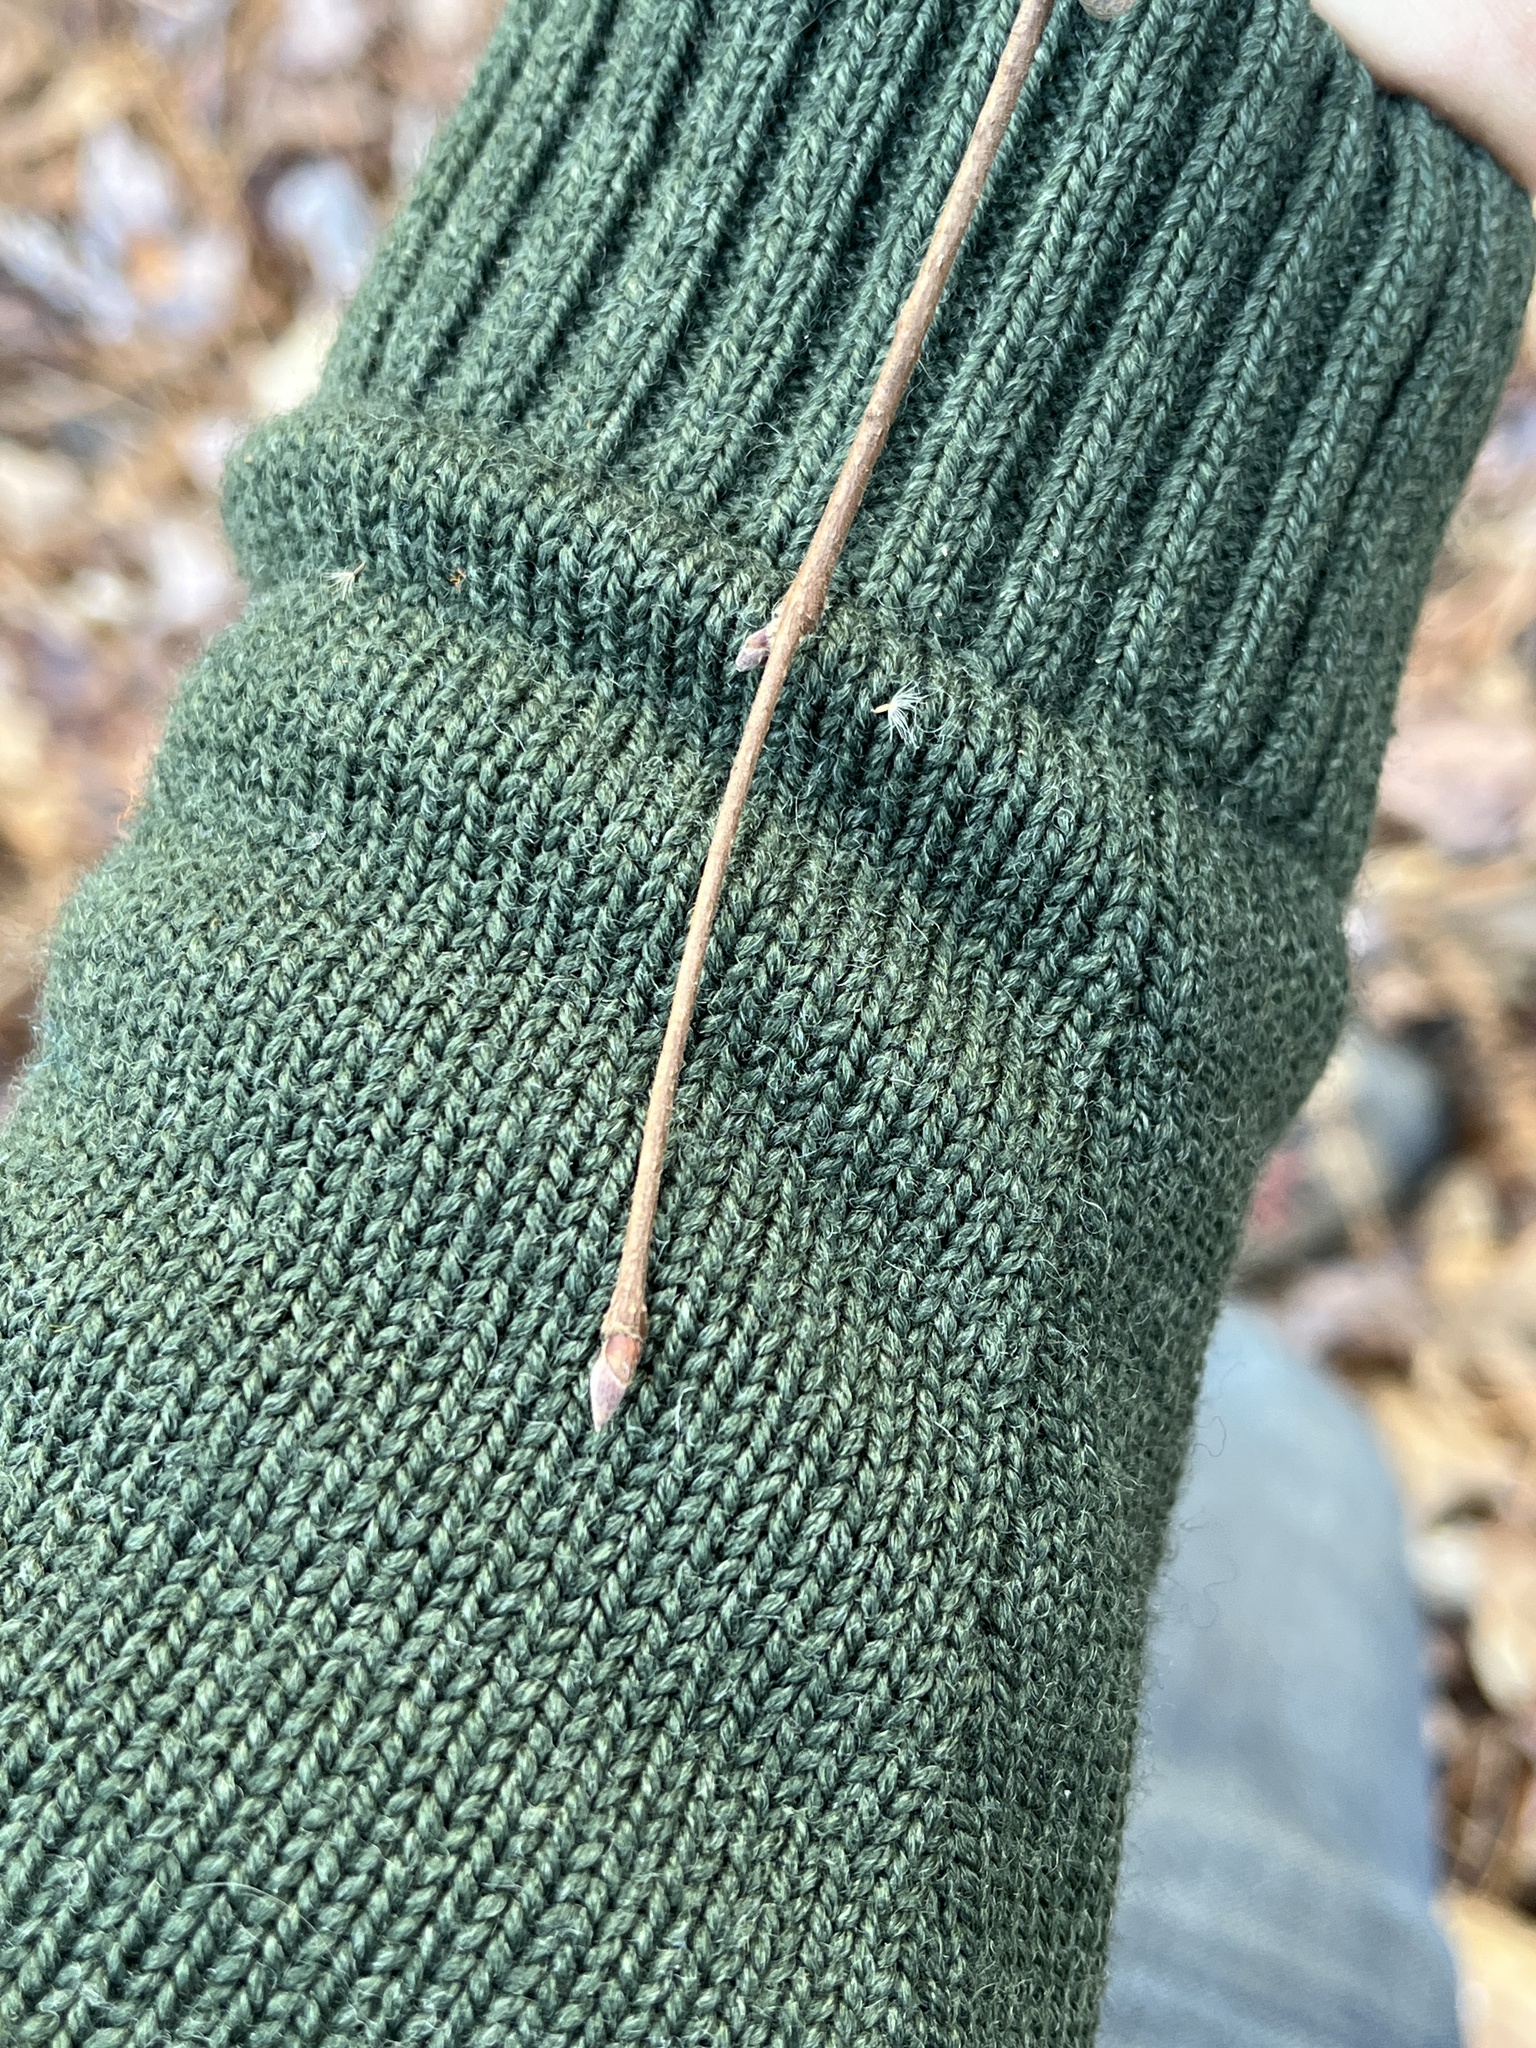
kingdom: Plantae
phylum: Tracheophyta
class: Magnoliopsida
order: Fagales
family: Betulaceae
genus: Corylus
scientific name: Corylus cornuta
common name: Beaked hazel
